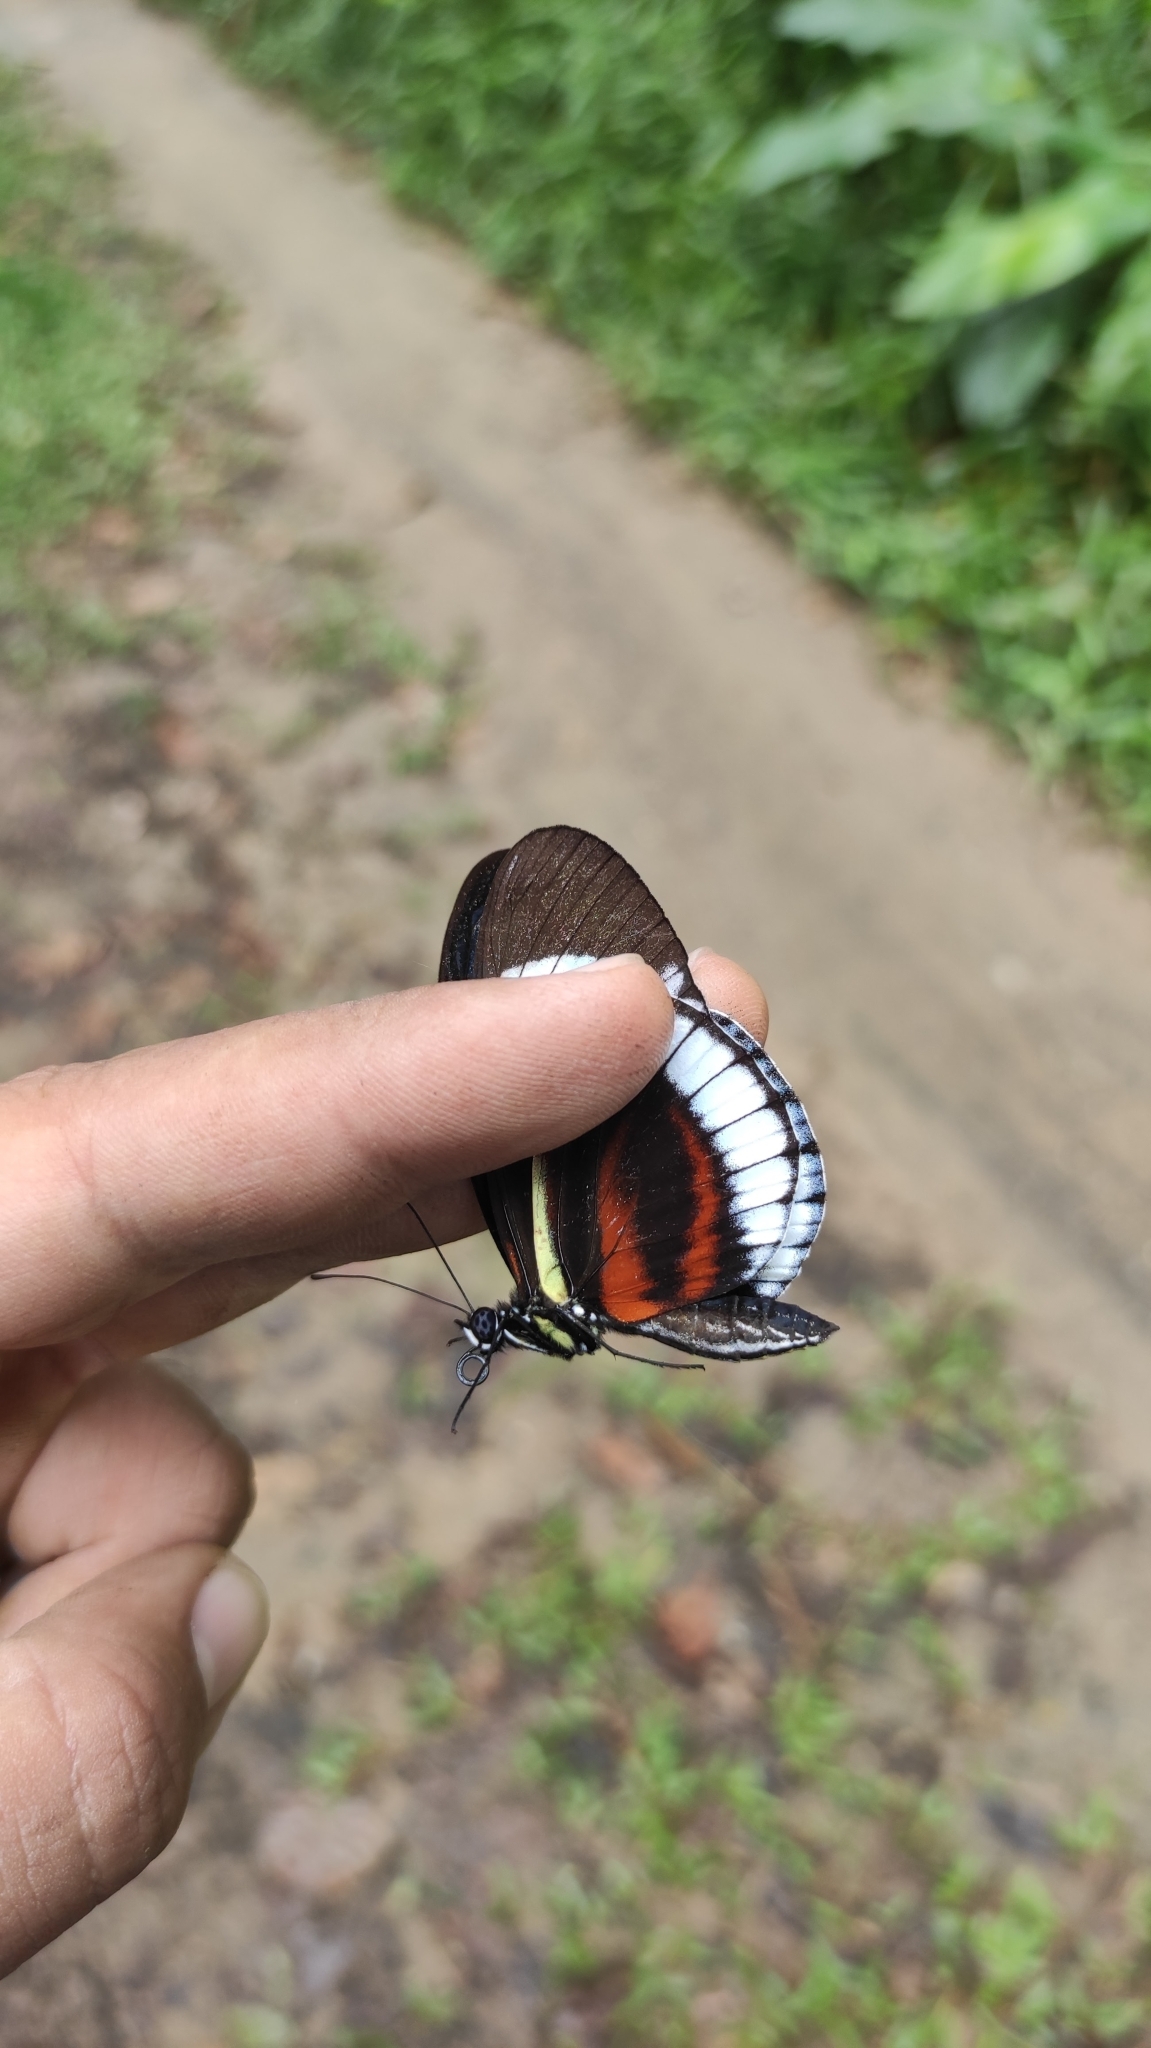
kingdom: Animalia
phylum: Arthropoda
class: Insecta
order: Lepidoptera
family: Nymphalidae
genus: Heliconius
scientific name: Heliconius cydno
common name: Cydno longwing
